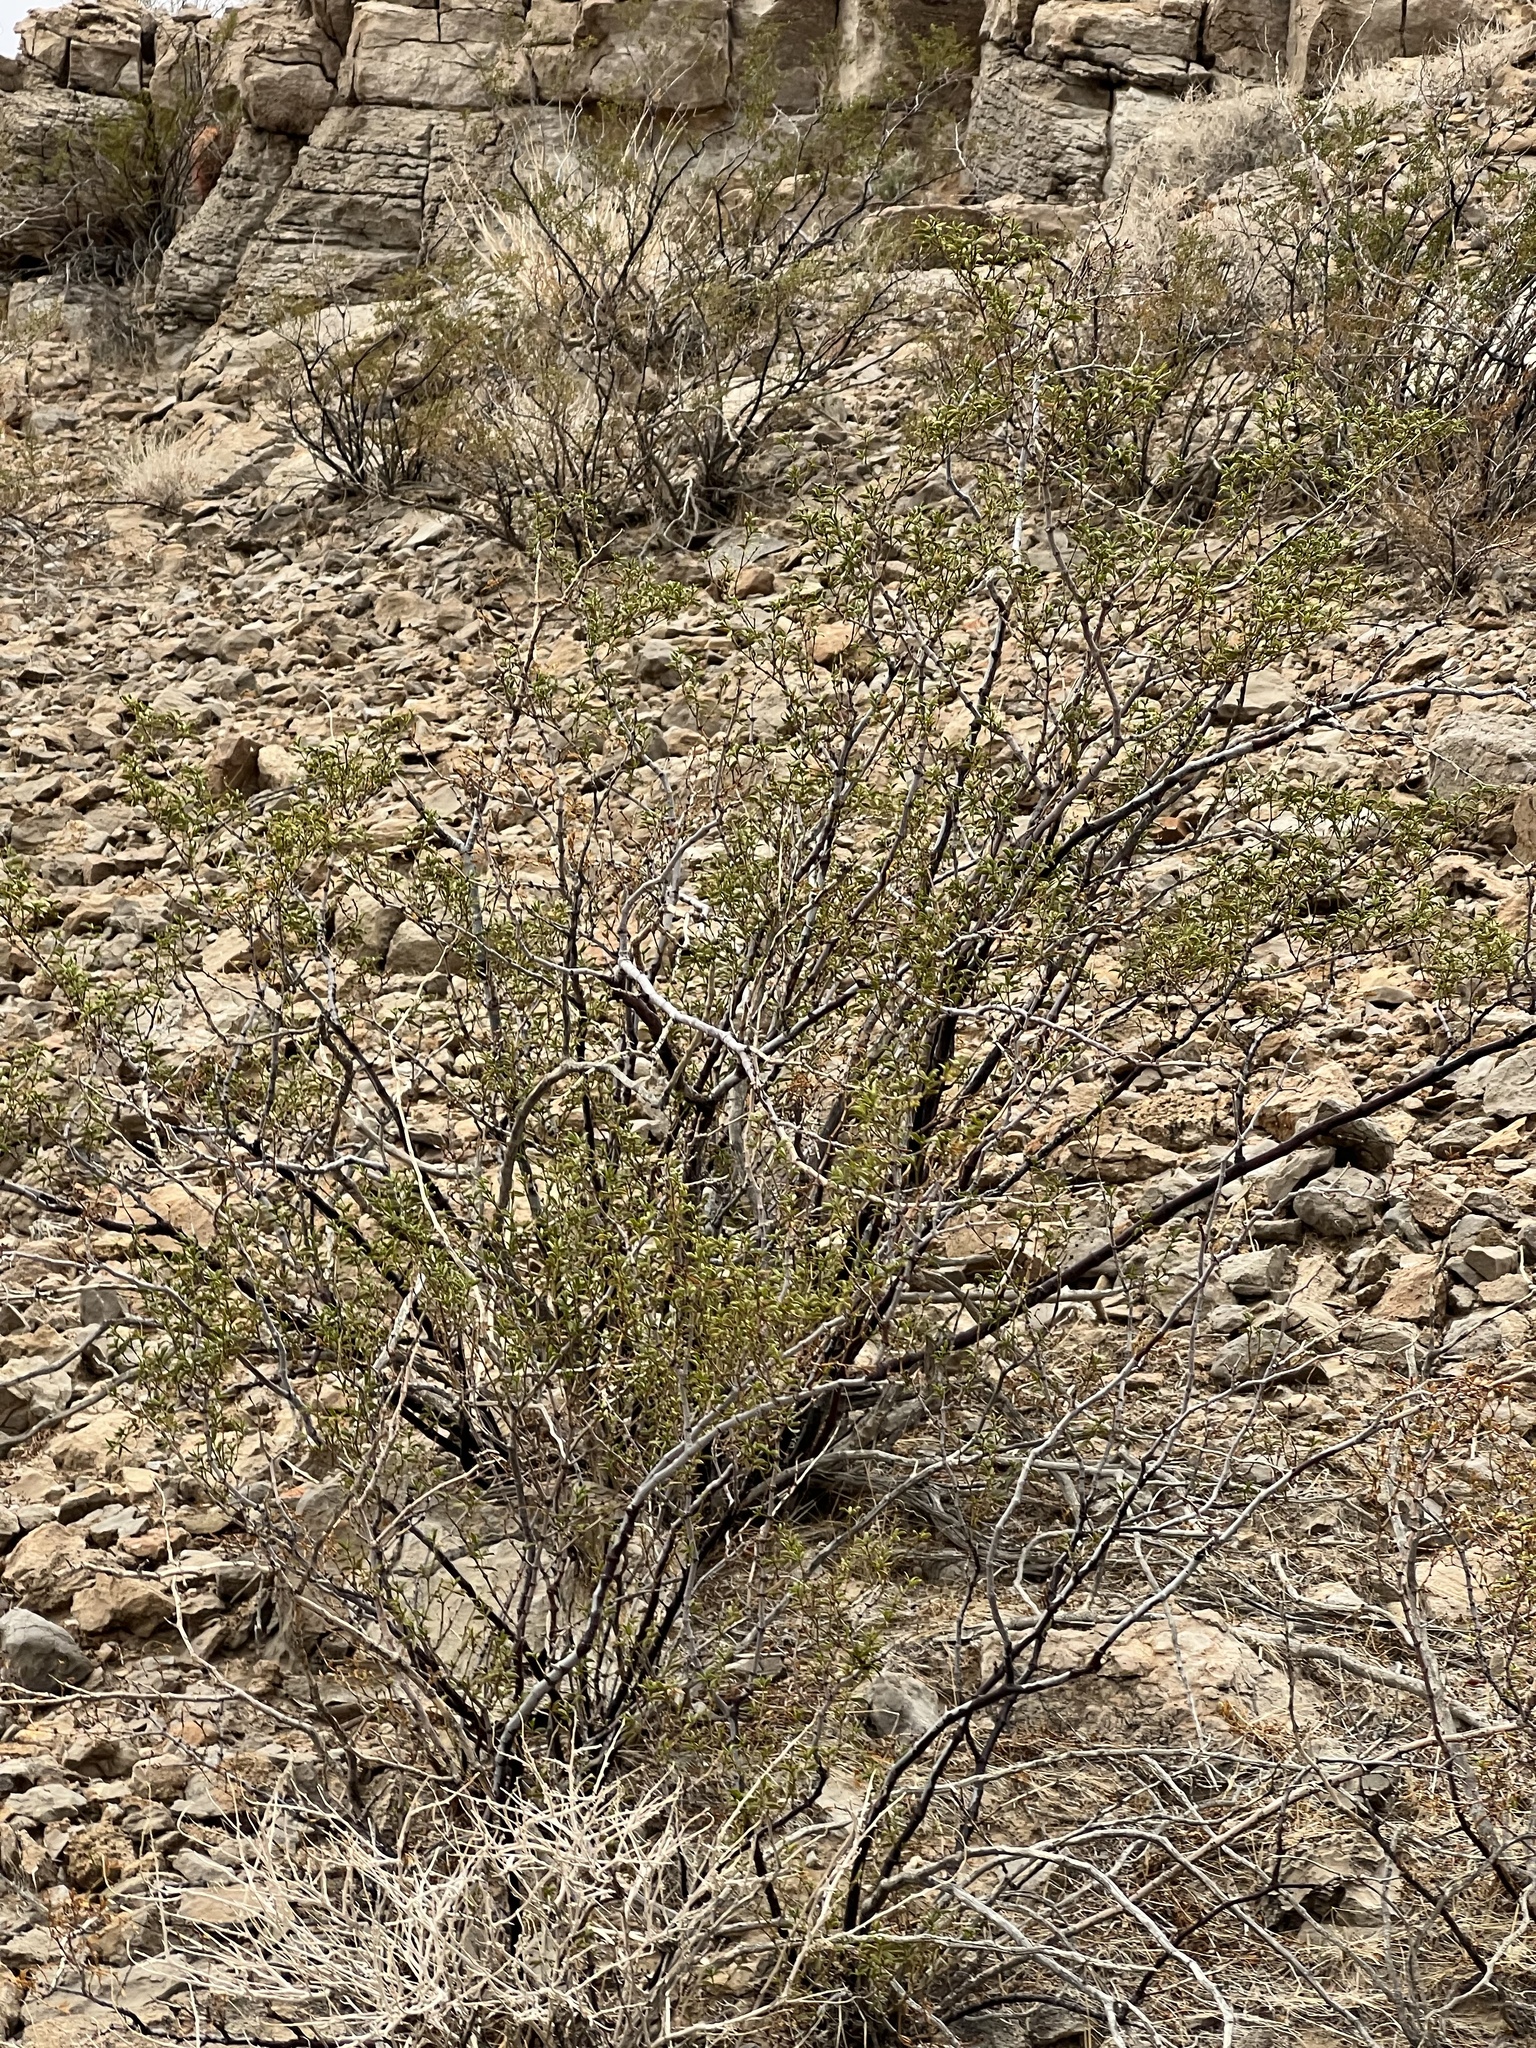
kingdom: Plantae
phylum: Tracheophyta
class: Magnoliopsida
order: Zygophyllales
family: Zygophyllaceae
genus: Larrea
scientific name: Larrea tridentata
